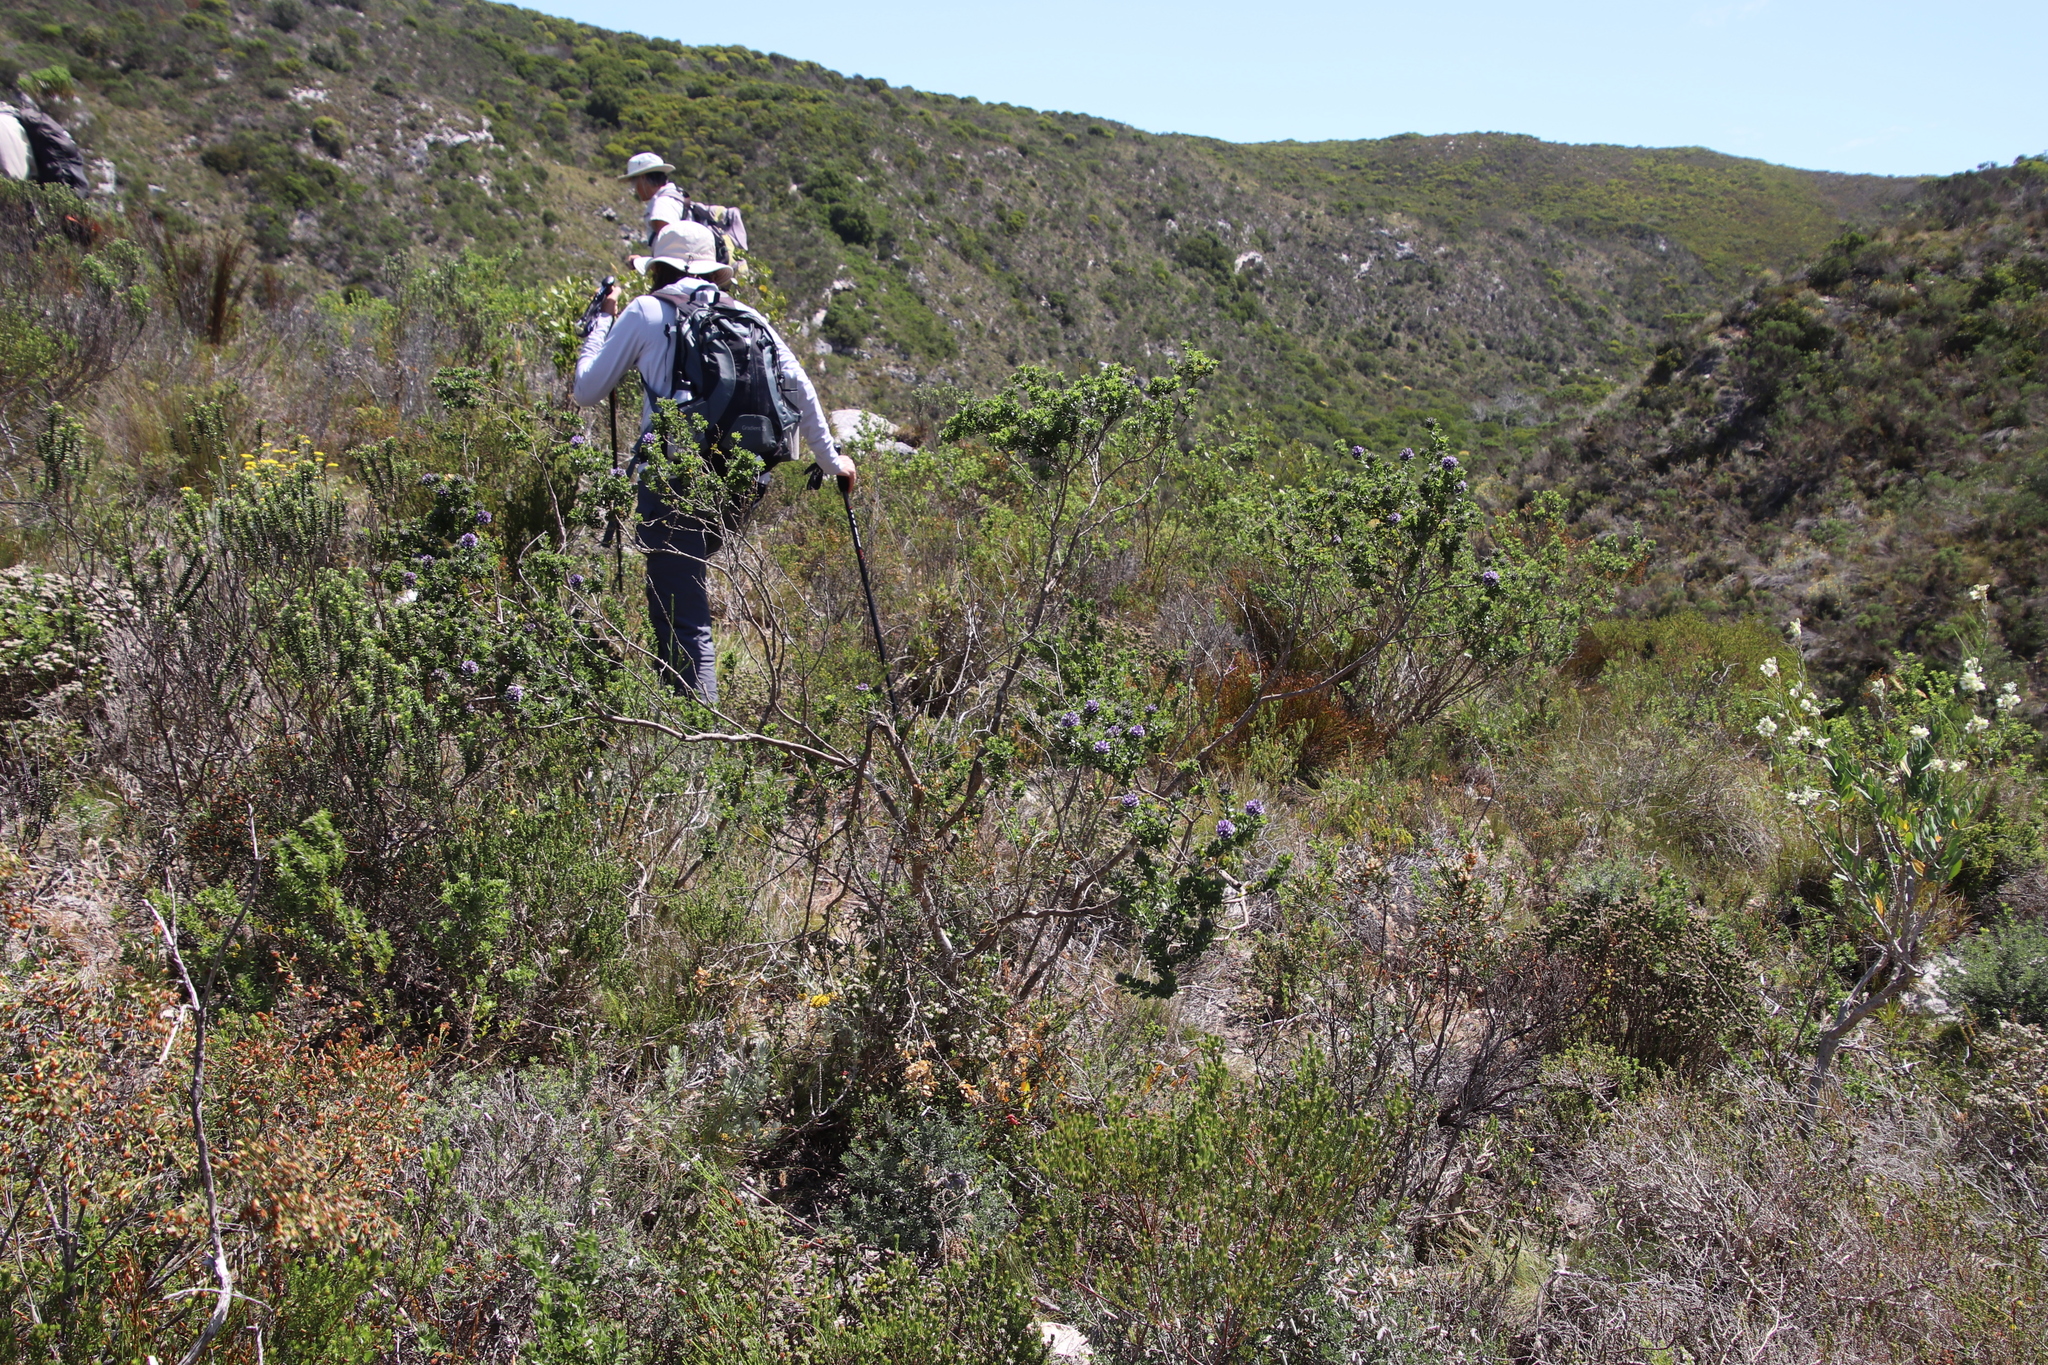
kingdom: Plantae
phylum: Tracheophyta
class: Magnoliopsida
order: Fabales
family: Fabaceae
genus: Psoralea
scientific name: Psoralea bracteolata
